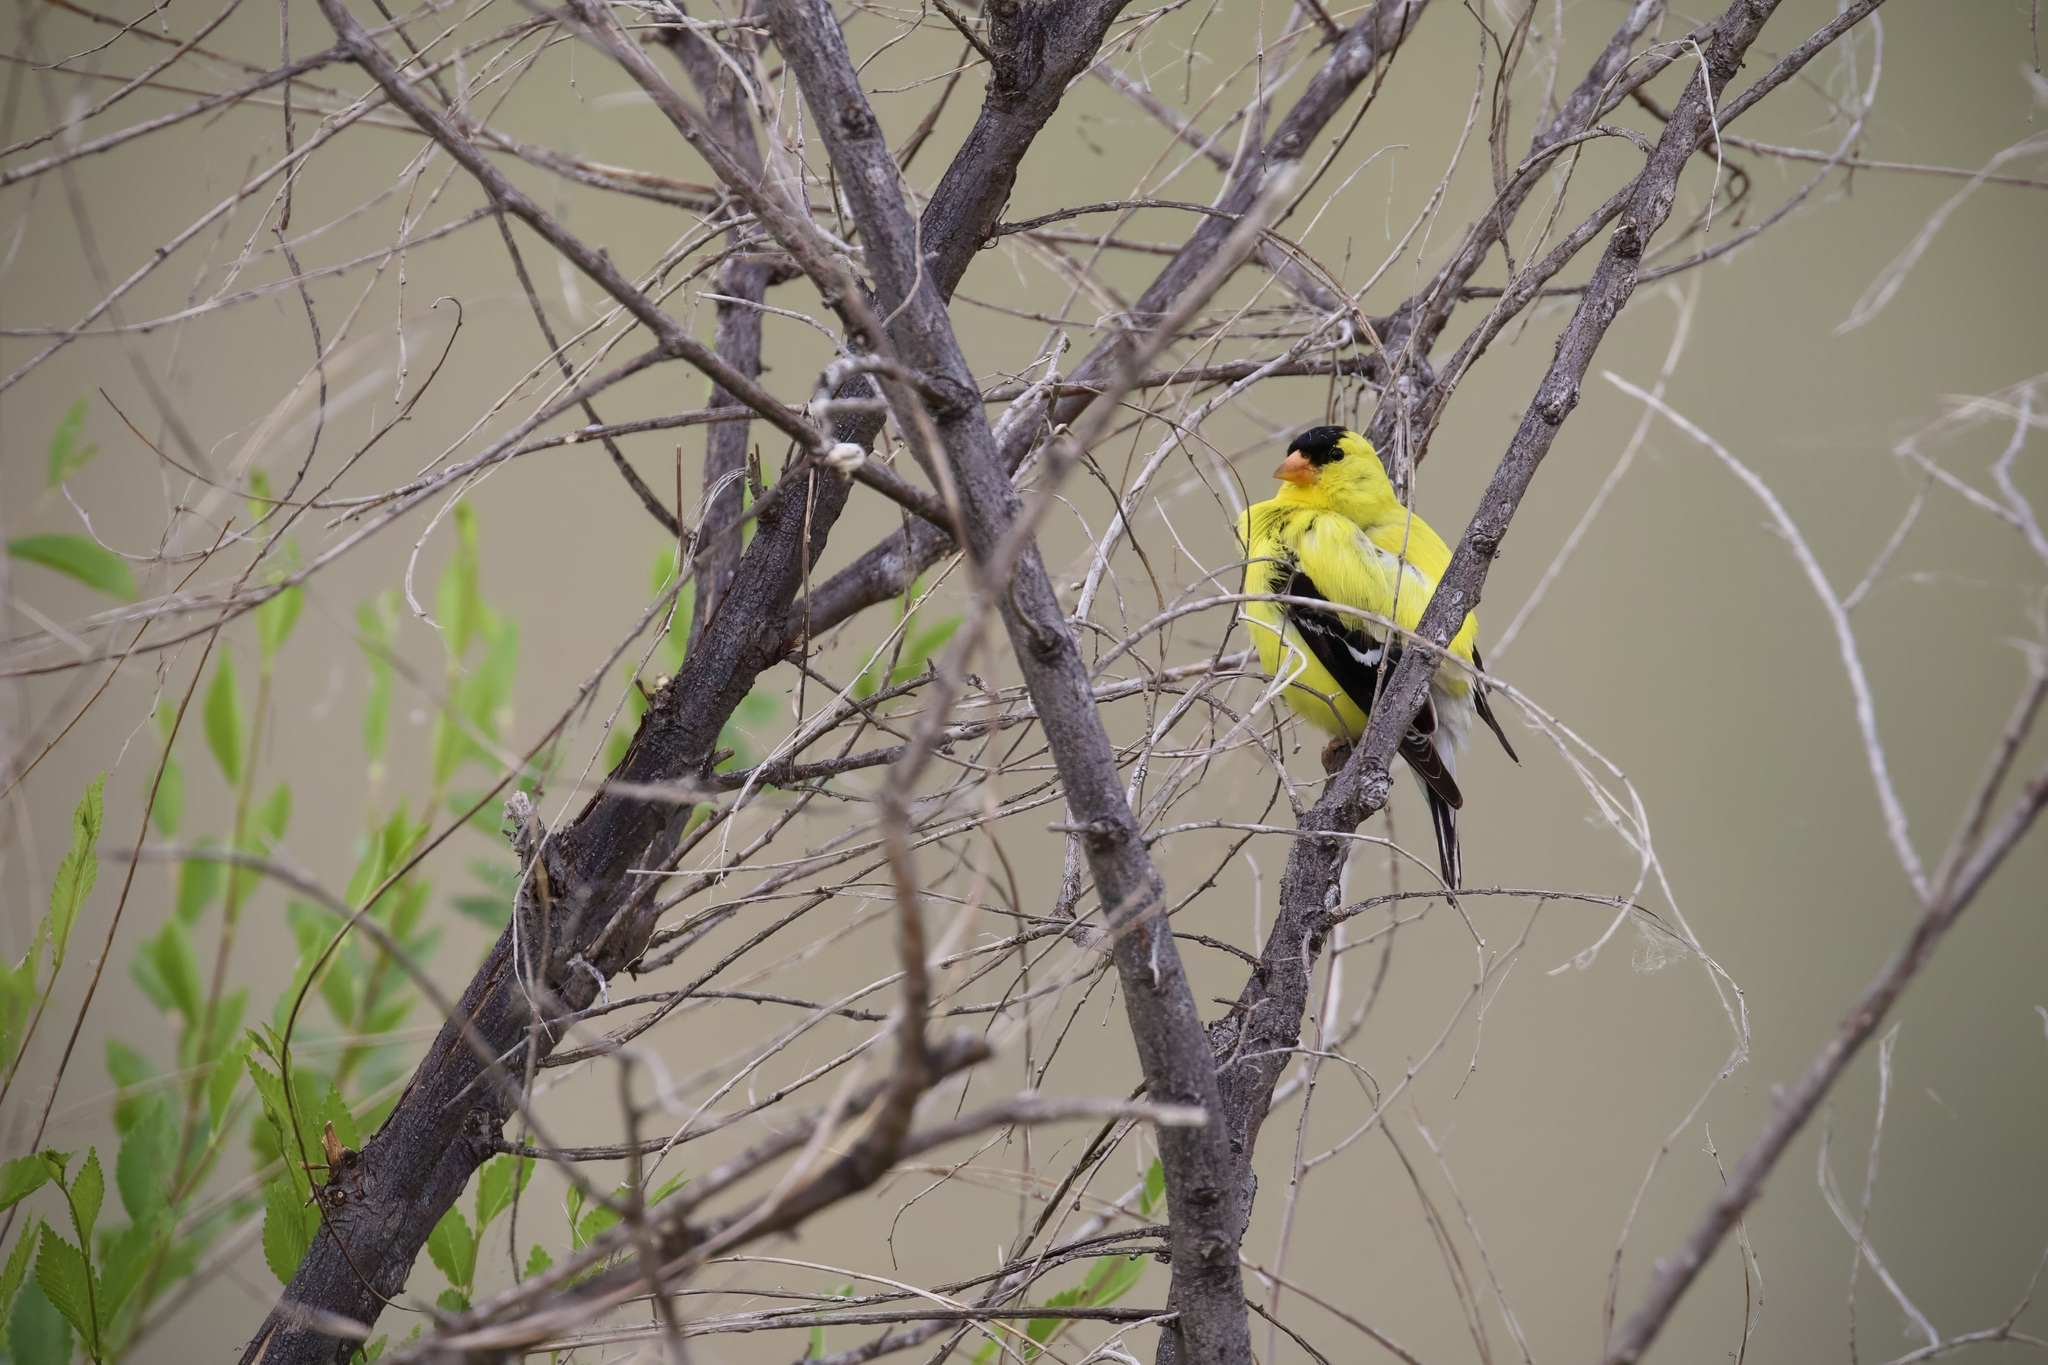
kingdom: Animalia
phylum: Chordata
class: Aves
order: Passeriformes
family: Fringillidae
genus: Spinus
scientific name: Spinus tristis
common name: American goldfinch
